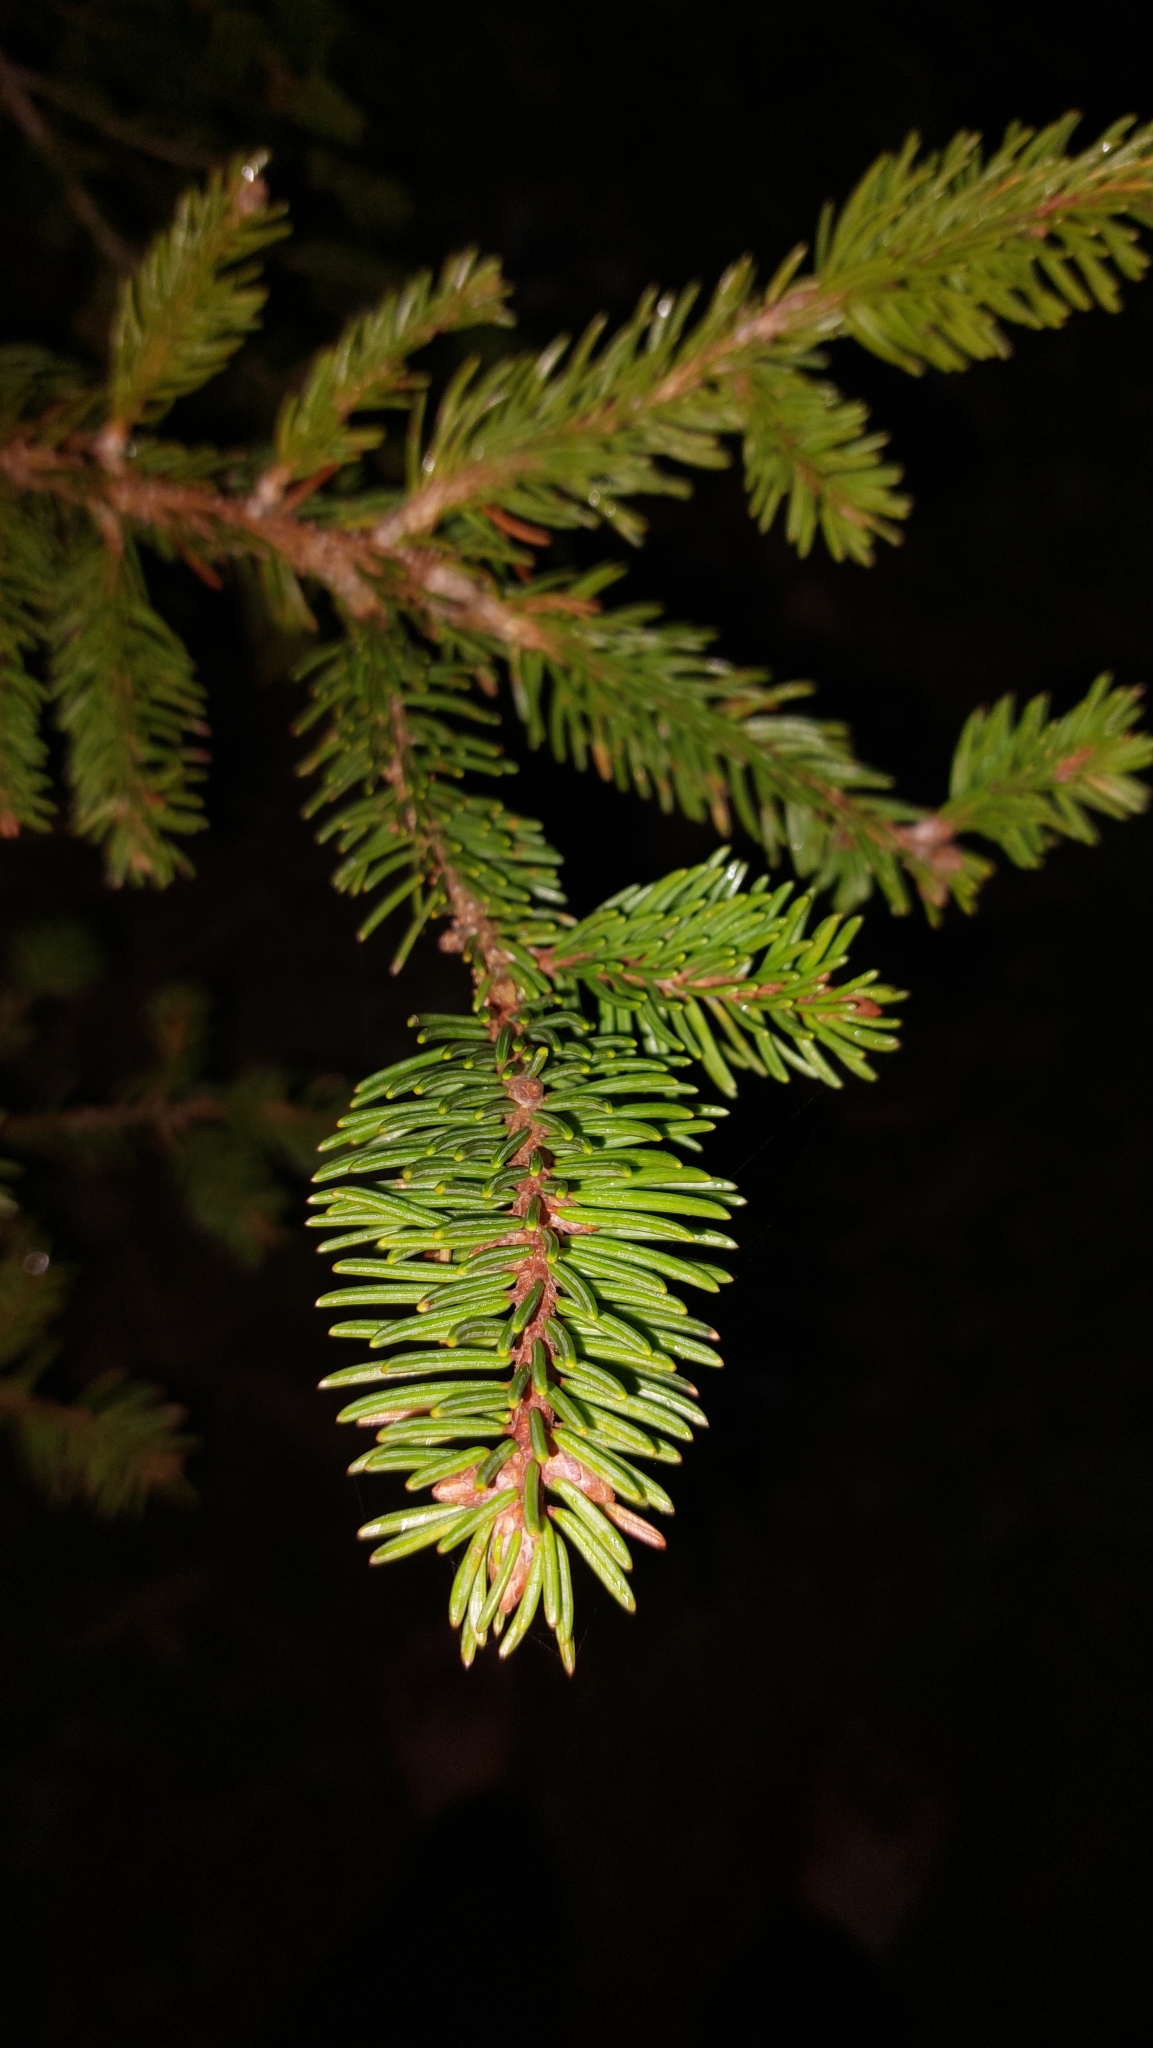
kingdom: Plantae
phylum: Tracheophyta
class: Pinopsida
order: Pinales
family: Pinaceae
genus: Picea
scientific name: Picea abies
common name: Norway spruce
